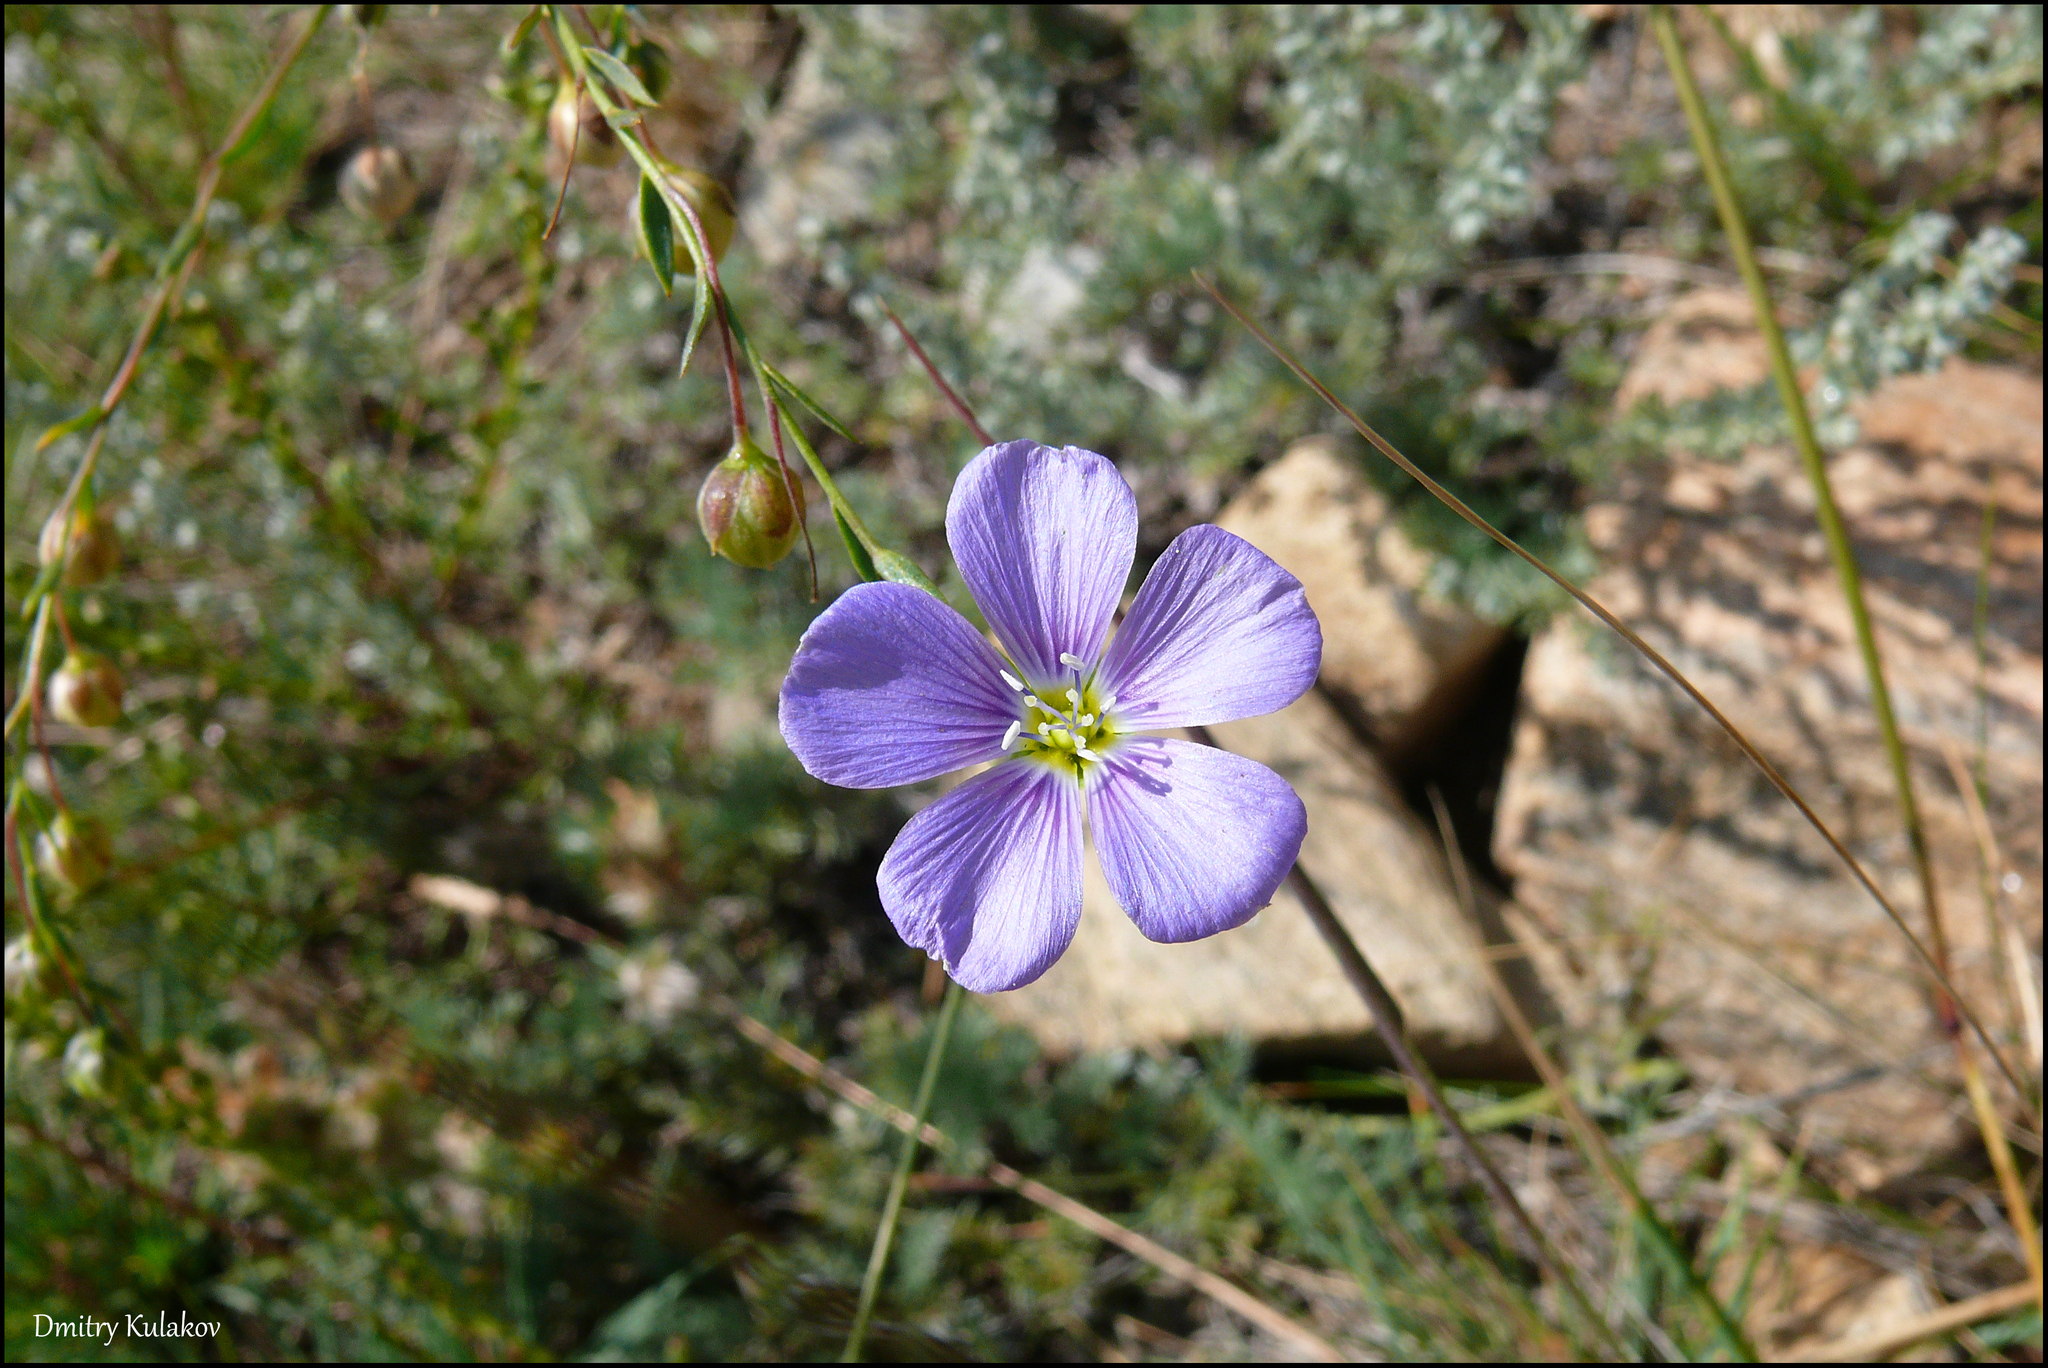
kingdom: Plantae
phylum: Tracheophyta
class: Magnoliopsida
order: Malpighiales
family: Linaceae
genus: Linum
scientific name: Linum perenne
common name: Blue flax
